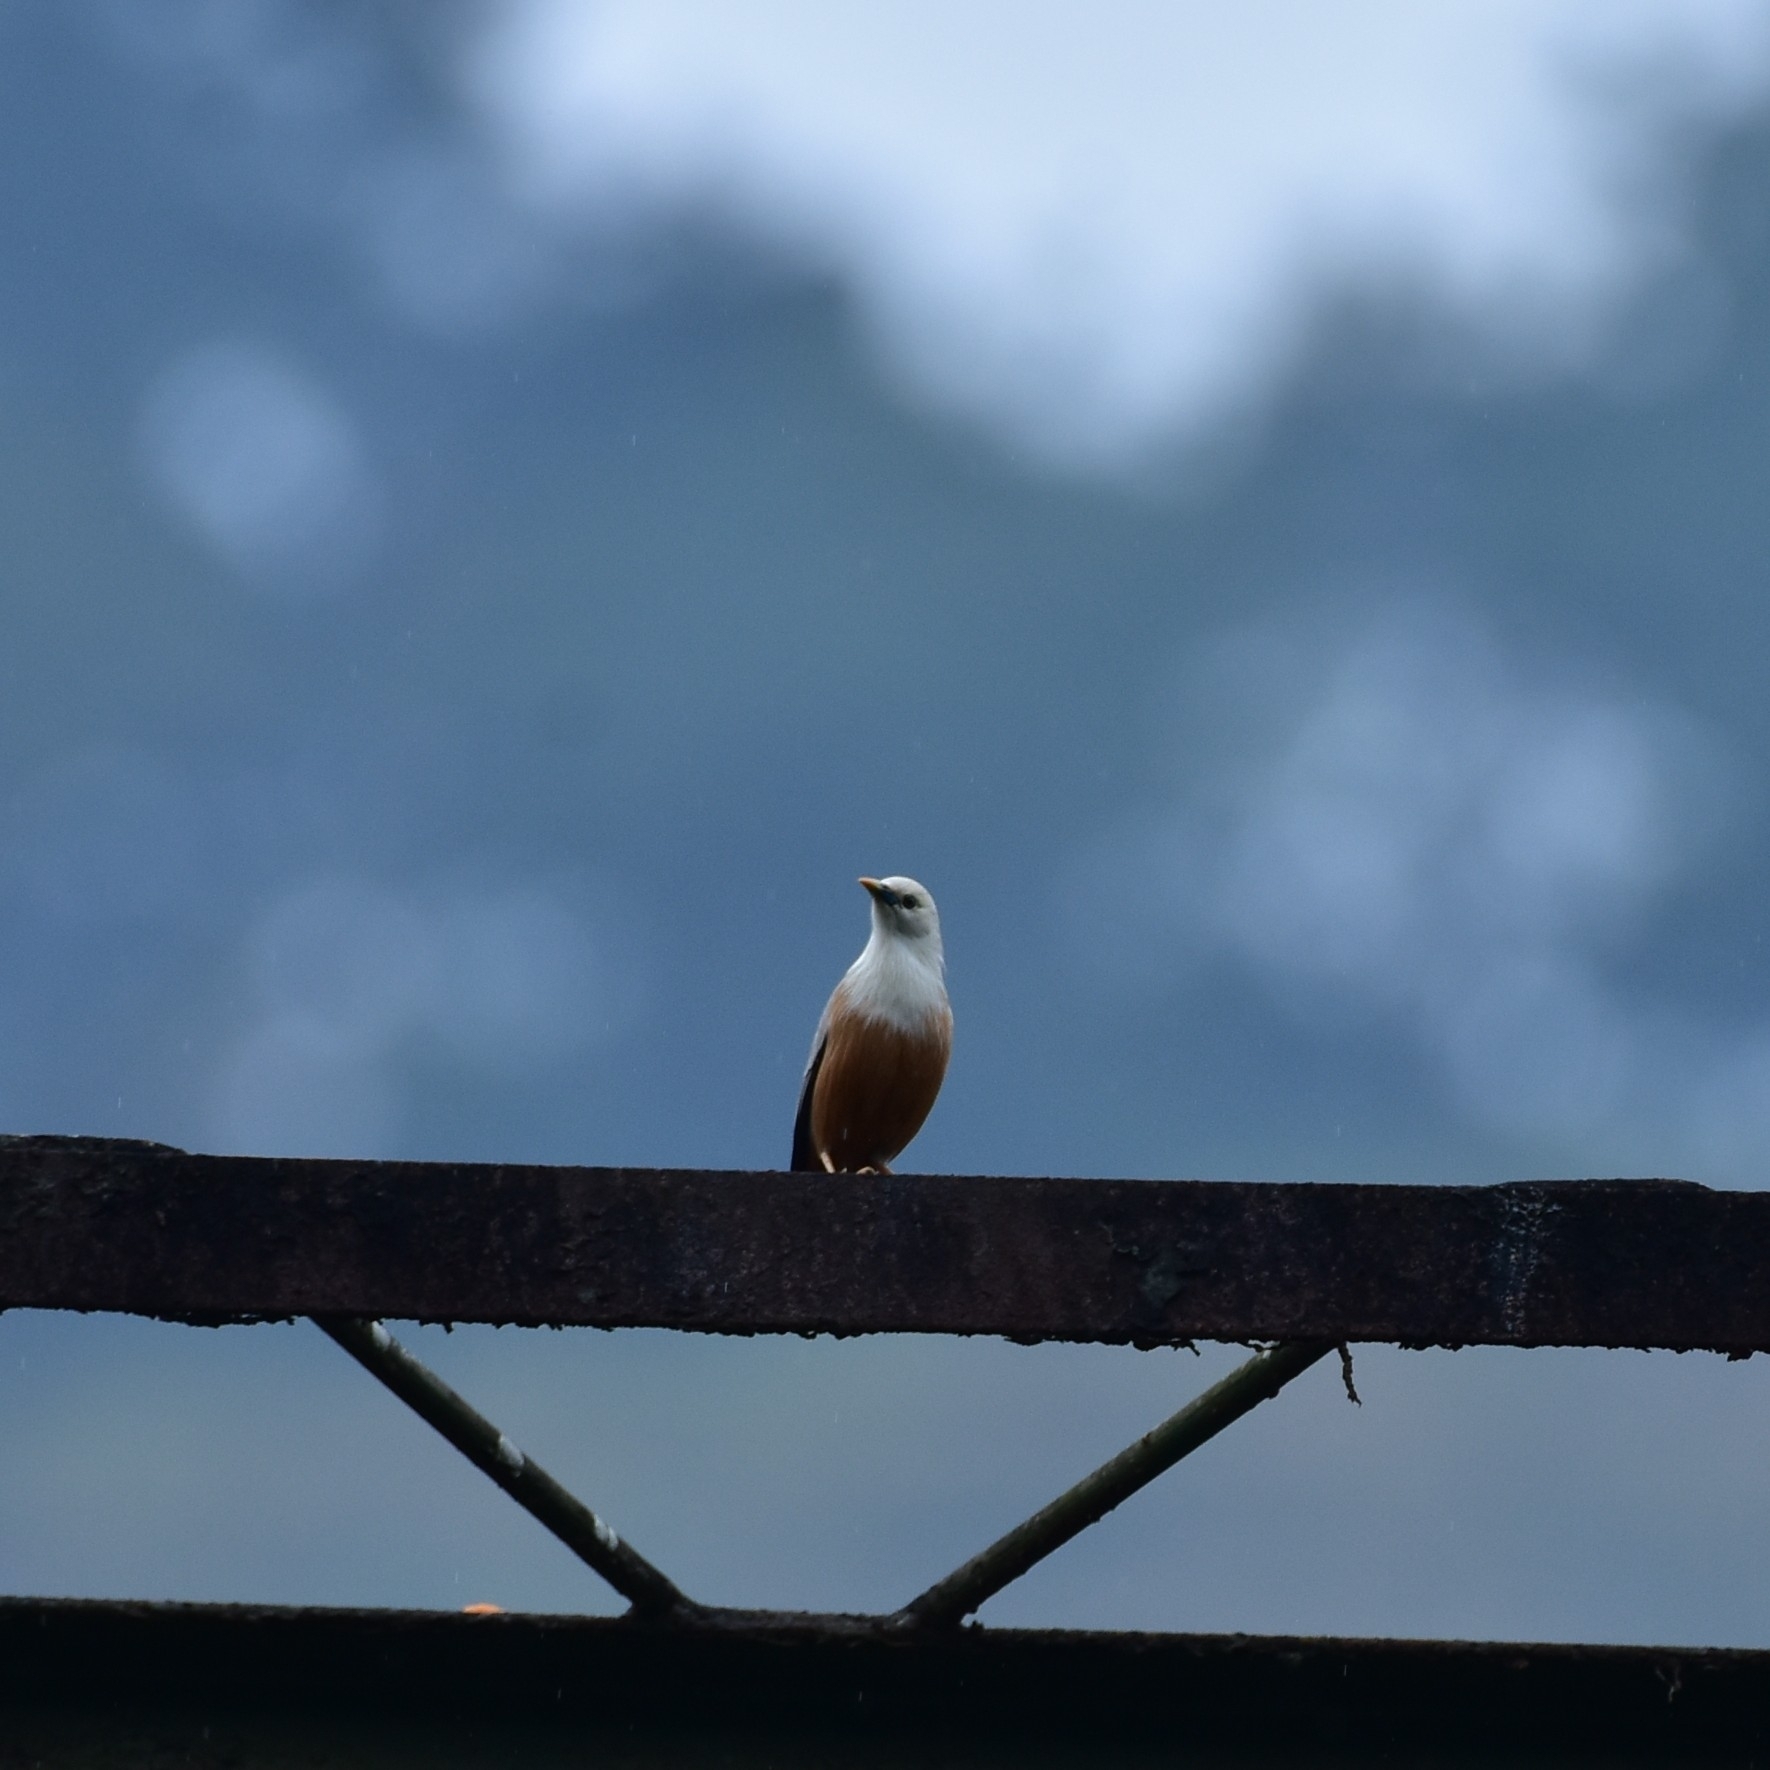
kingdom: Animalia
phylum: Chordata
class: Aves
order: Passeriformes
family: Sturnidae
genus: Sturnia
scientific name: Sturnia blythii
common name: Malabar starling
